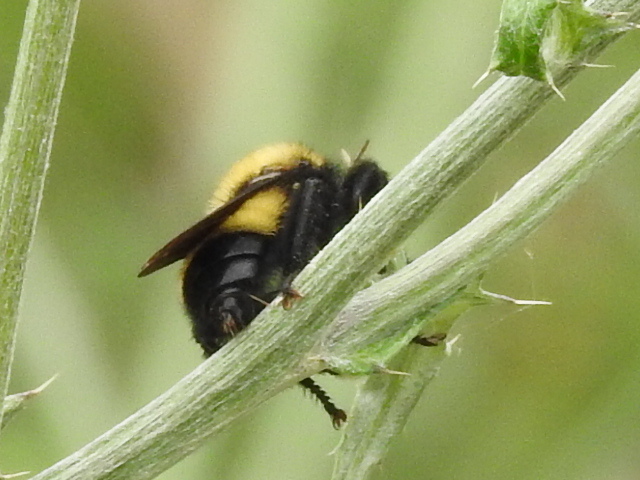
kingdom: Animalia
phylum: Arthropoda
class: Insecta
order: Diptera
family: Asilidae
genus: Laphria
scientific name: Laphria macquarti
